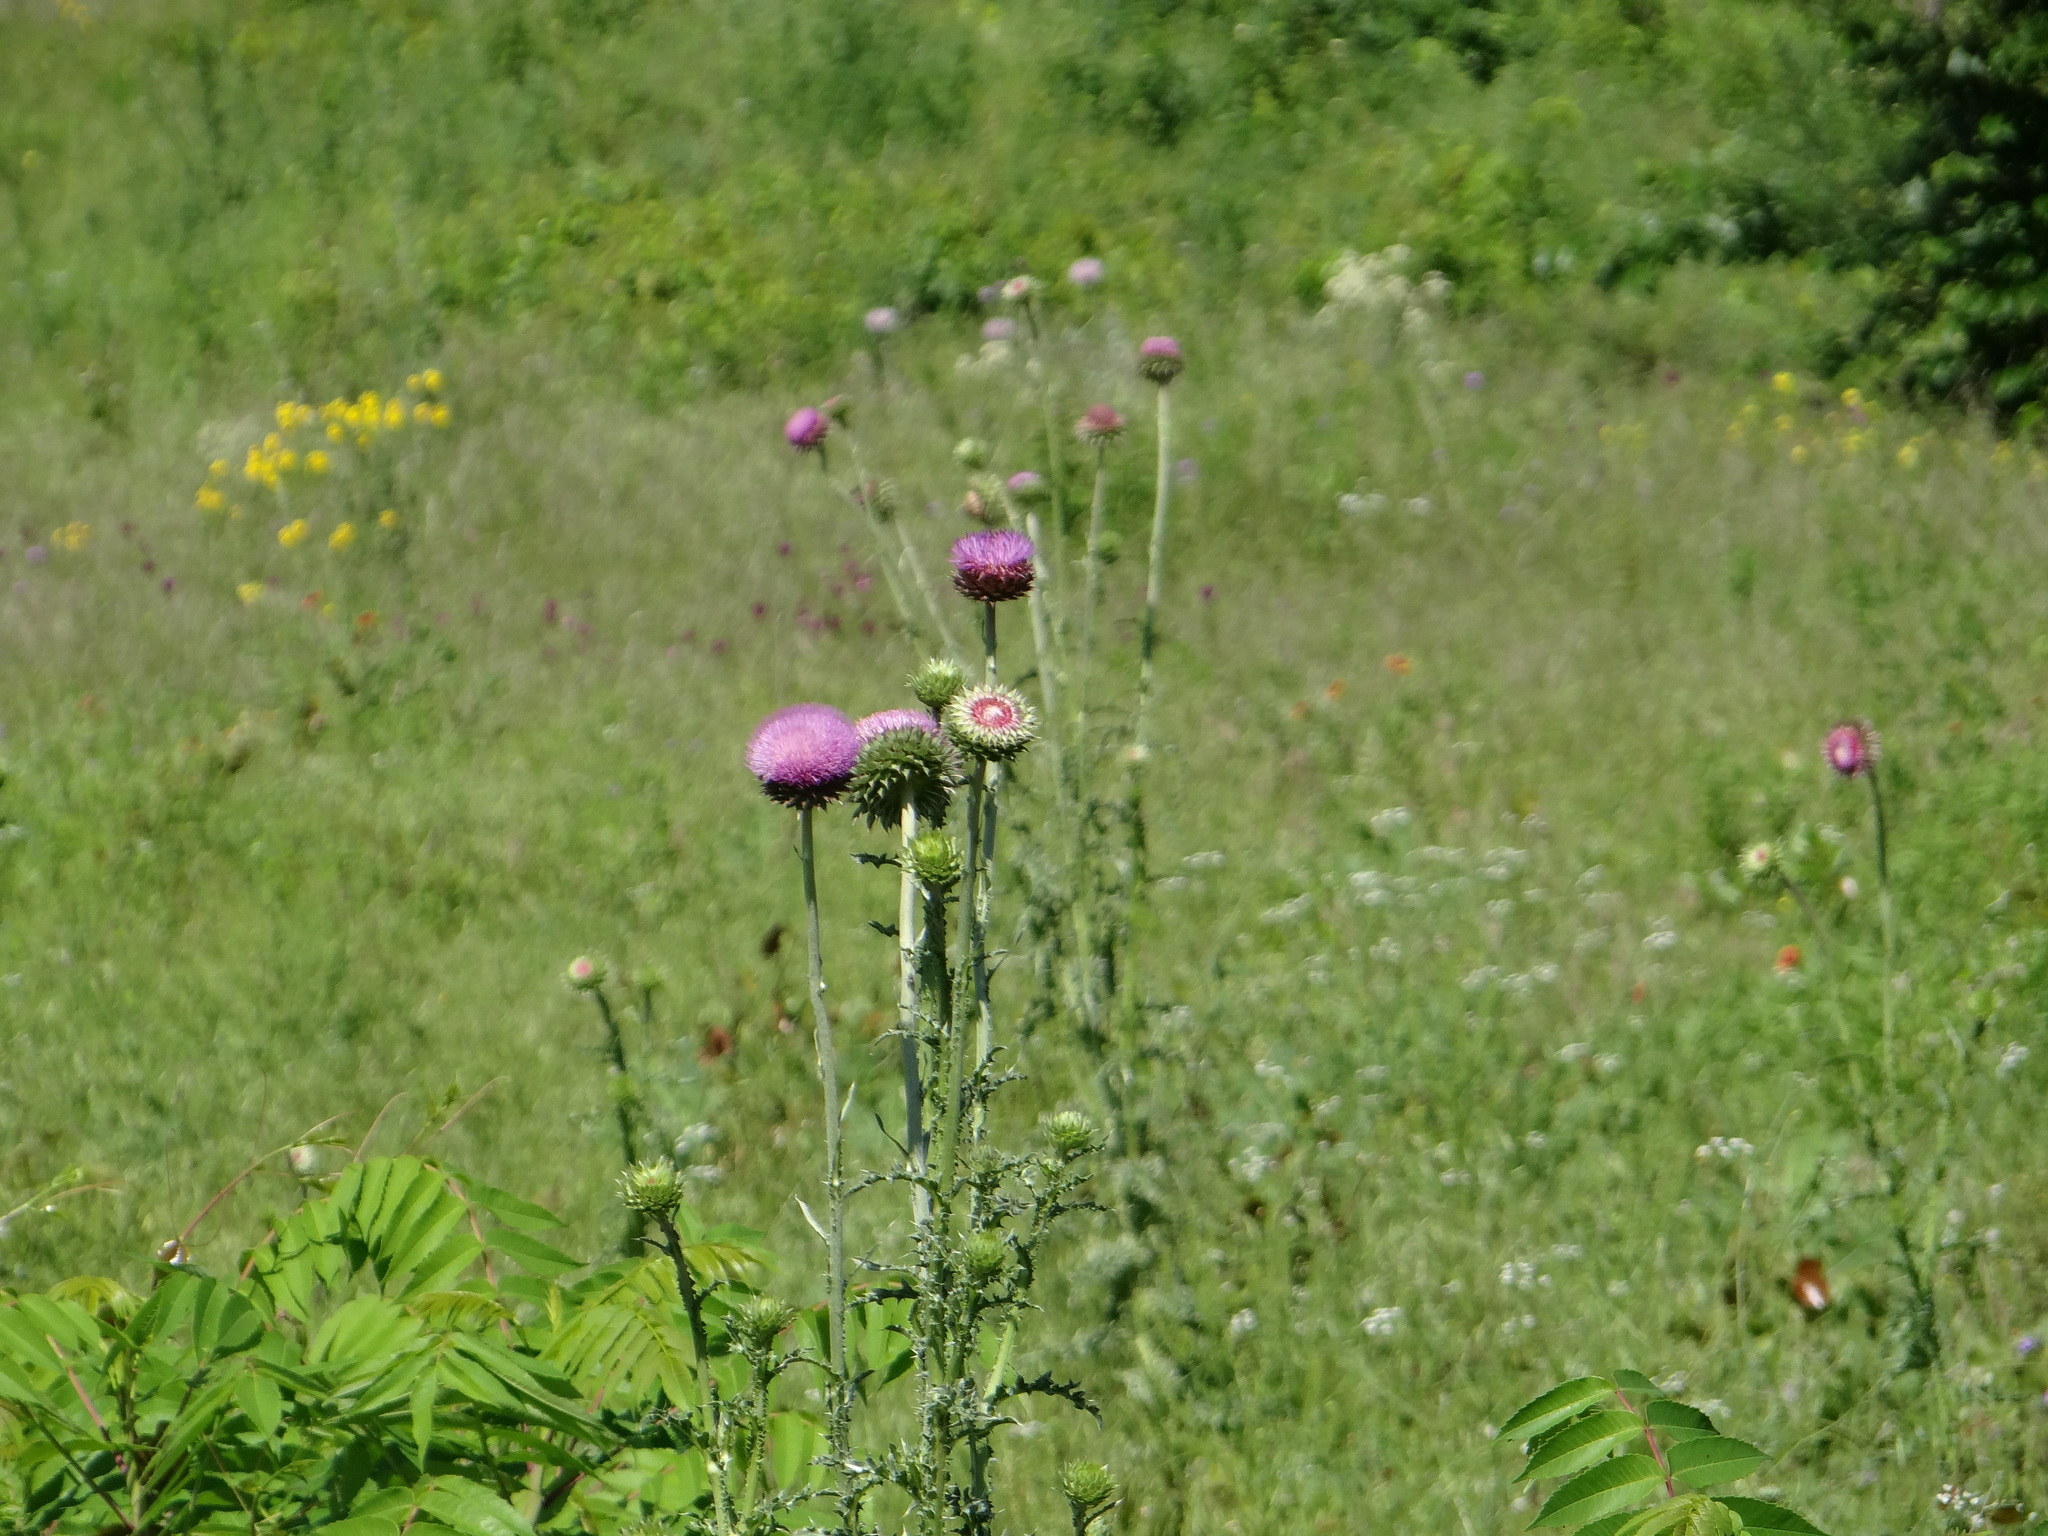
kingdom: Plantae
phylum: Tracheophyta
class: Magnoliopsida
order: Asterales
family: Asteraceae
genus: Carduus
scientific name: Carduus nutans
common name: Musk thistle
